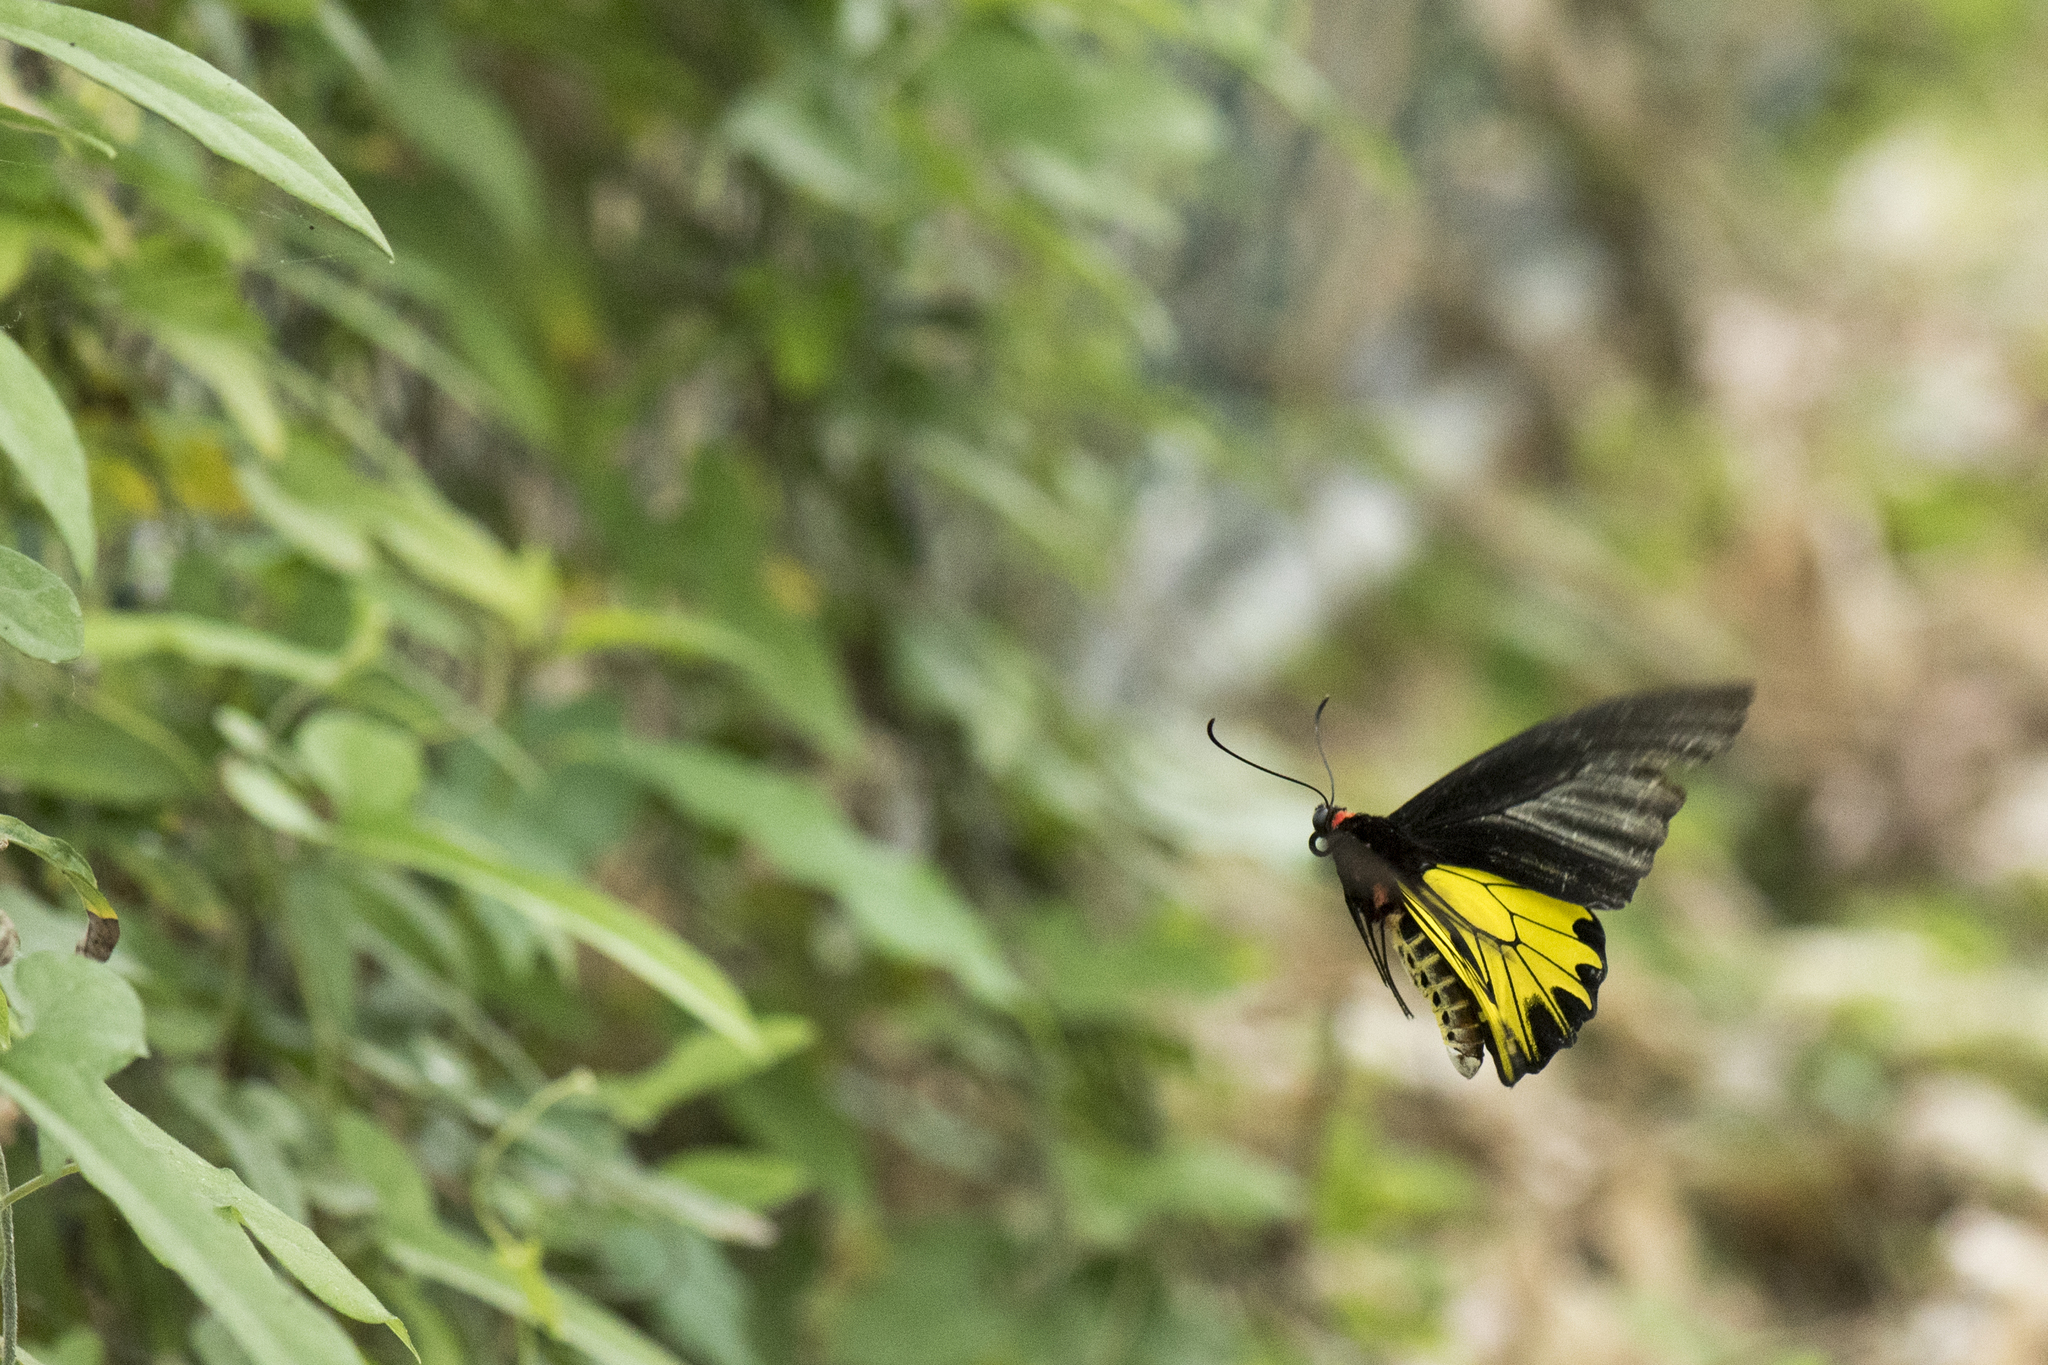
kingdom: Animalia
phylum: Arthropoda
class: Insecta
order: Lepidoptera
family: Papilionidae
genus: Troides
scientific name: Troides aeacus
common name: Golden birdwing
